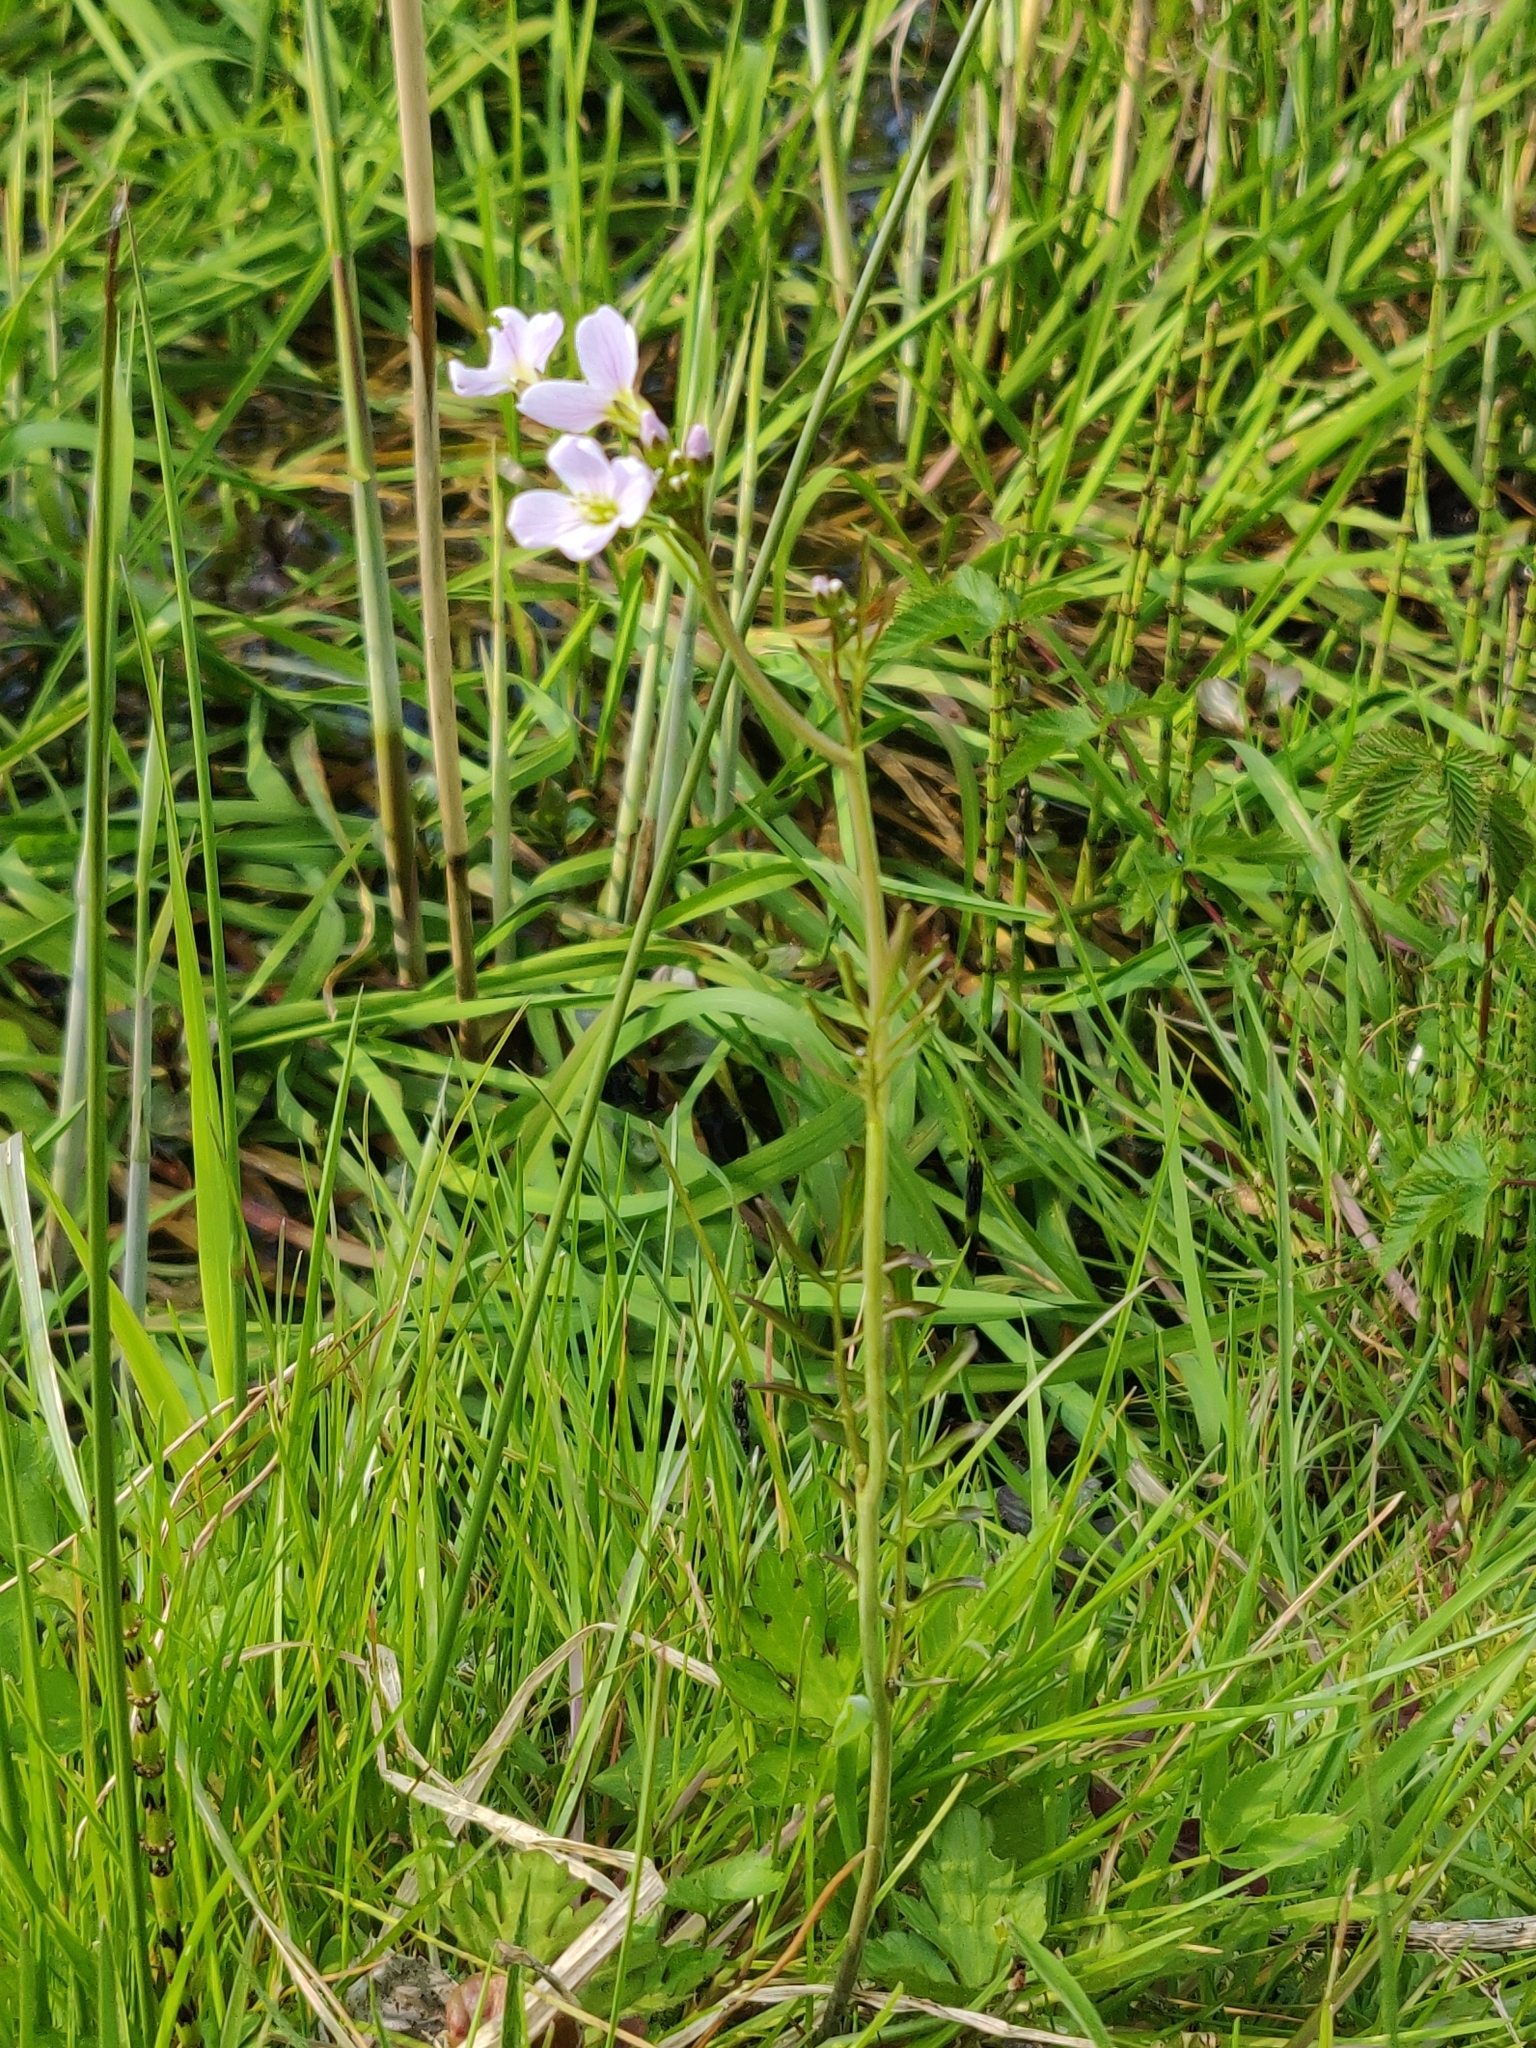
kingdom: Plantae
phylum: Tracheophyta
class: Magnoliopsida
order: Brassicales
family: Brassicaceae
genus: Cardamine
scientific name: Cardamine pratensis
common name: Cuckoo flower
